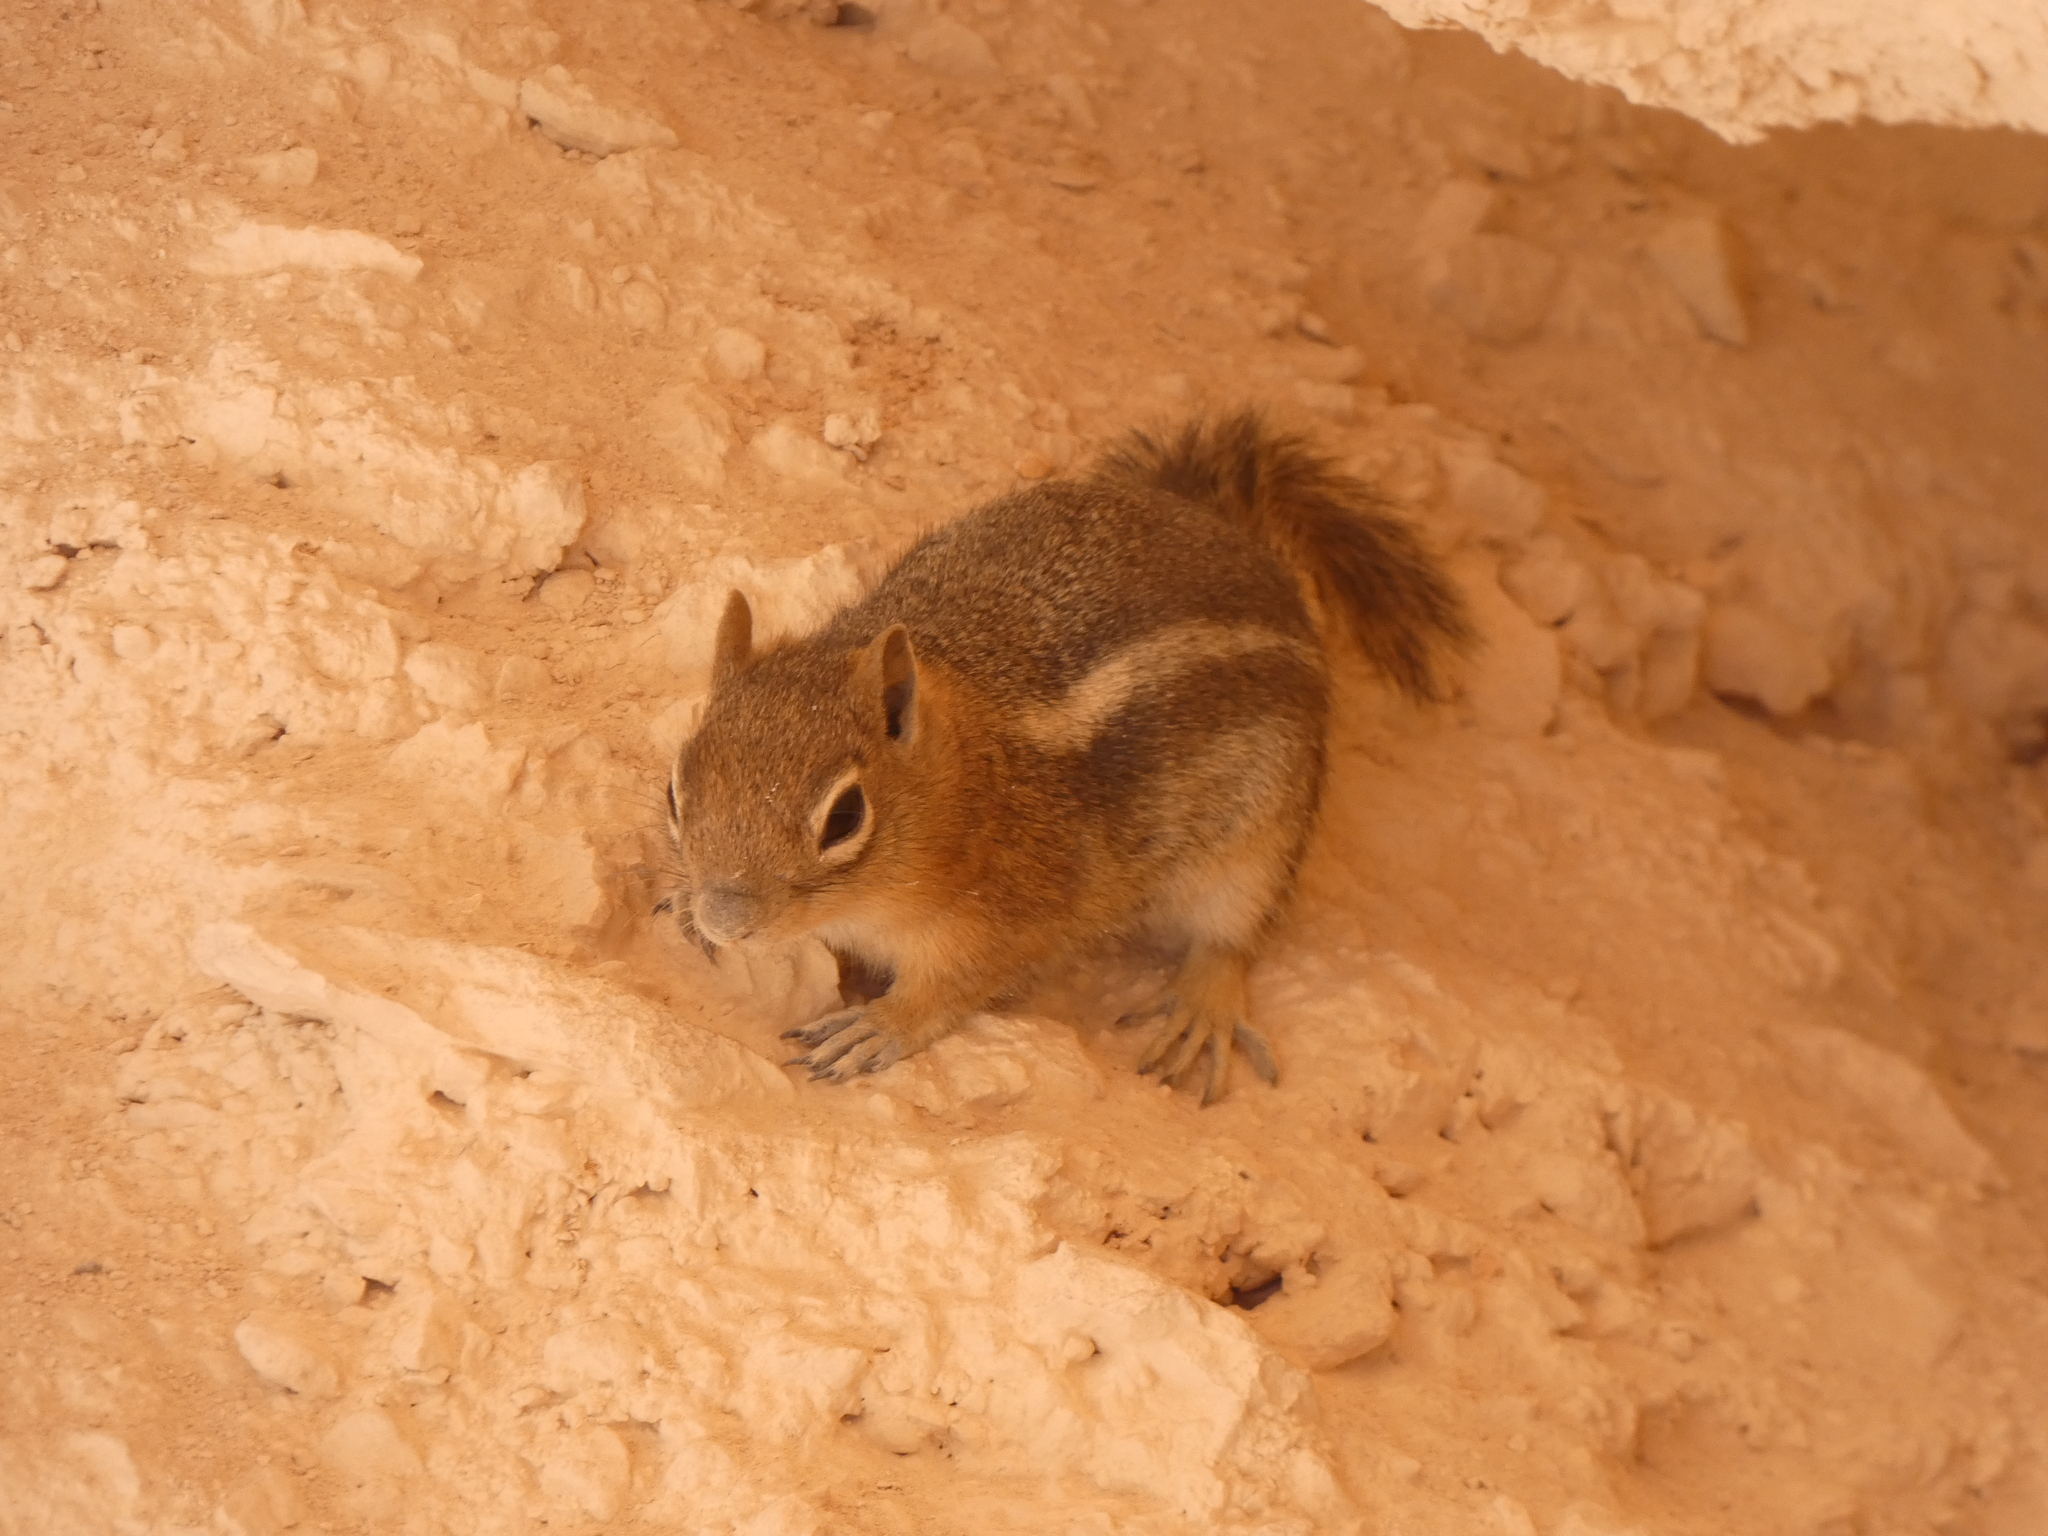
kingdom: Animalia
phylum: Chordata
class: Mammalia
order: Rodentia
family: Sciuridae
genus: Callospermophilus
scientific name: Callospermophilus lateralis
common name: Golden-mantled ground squirrel
